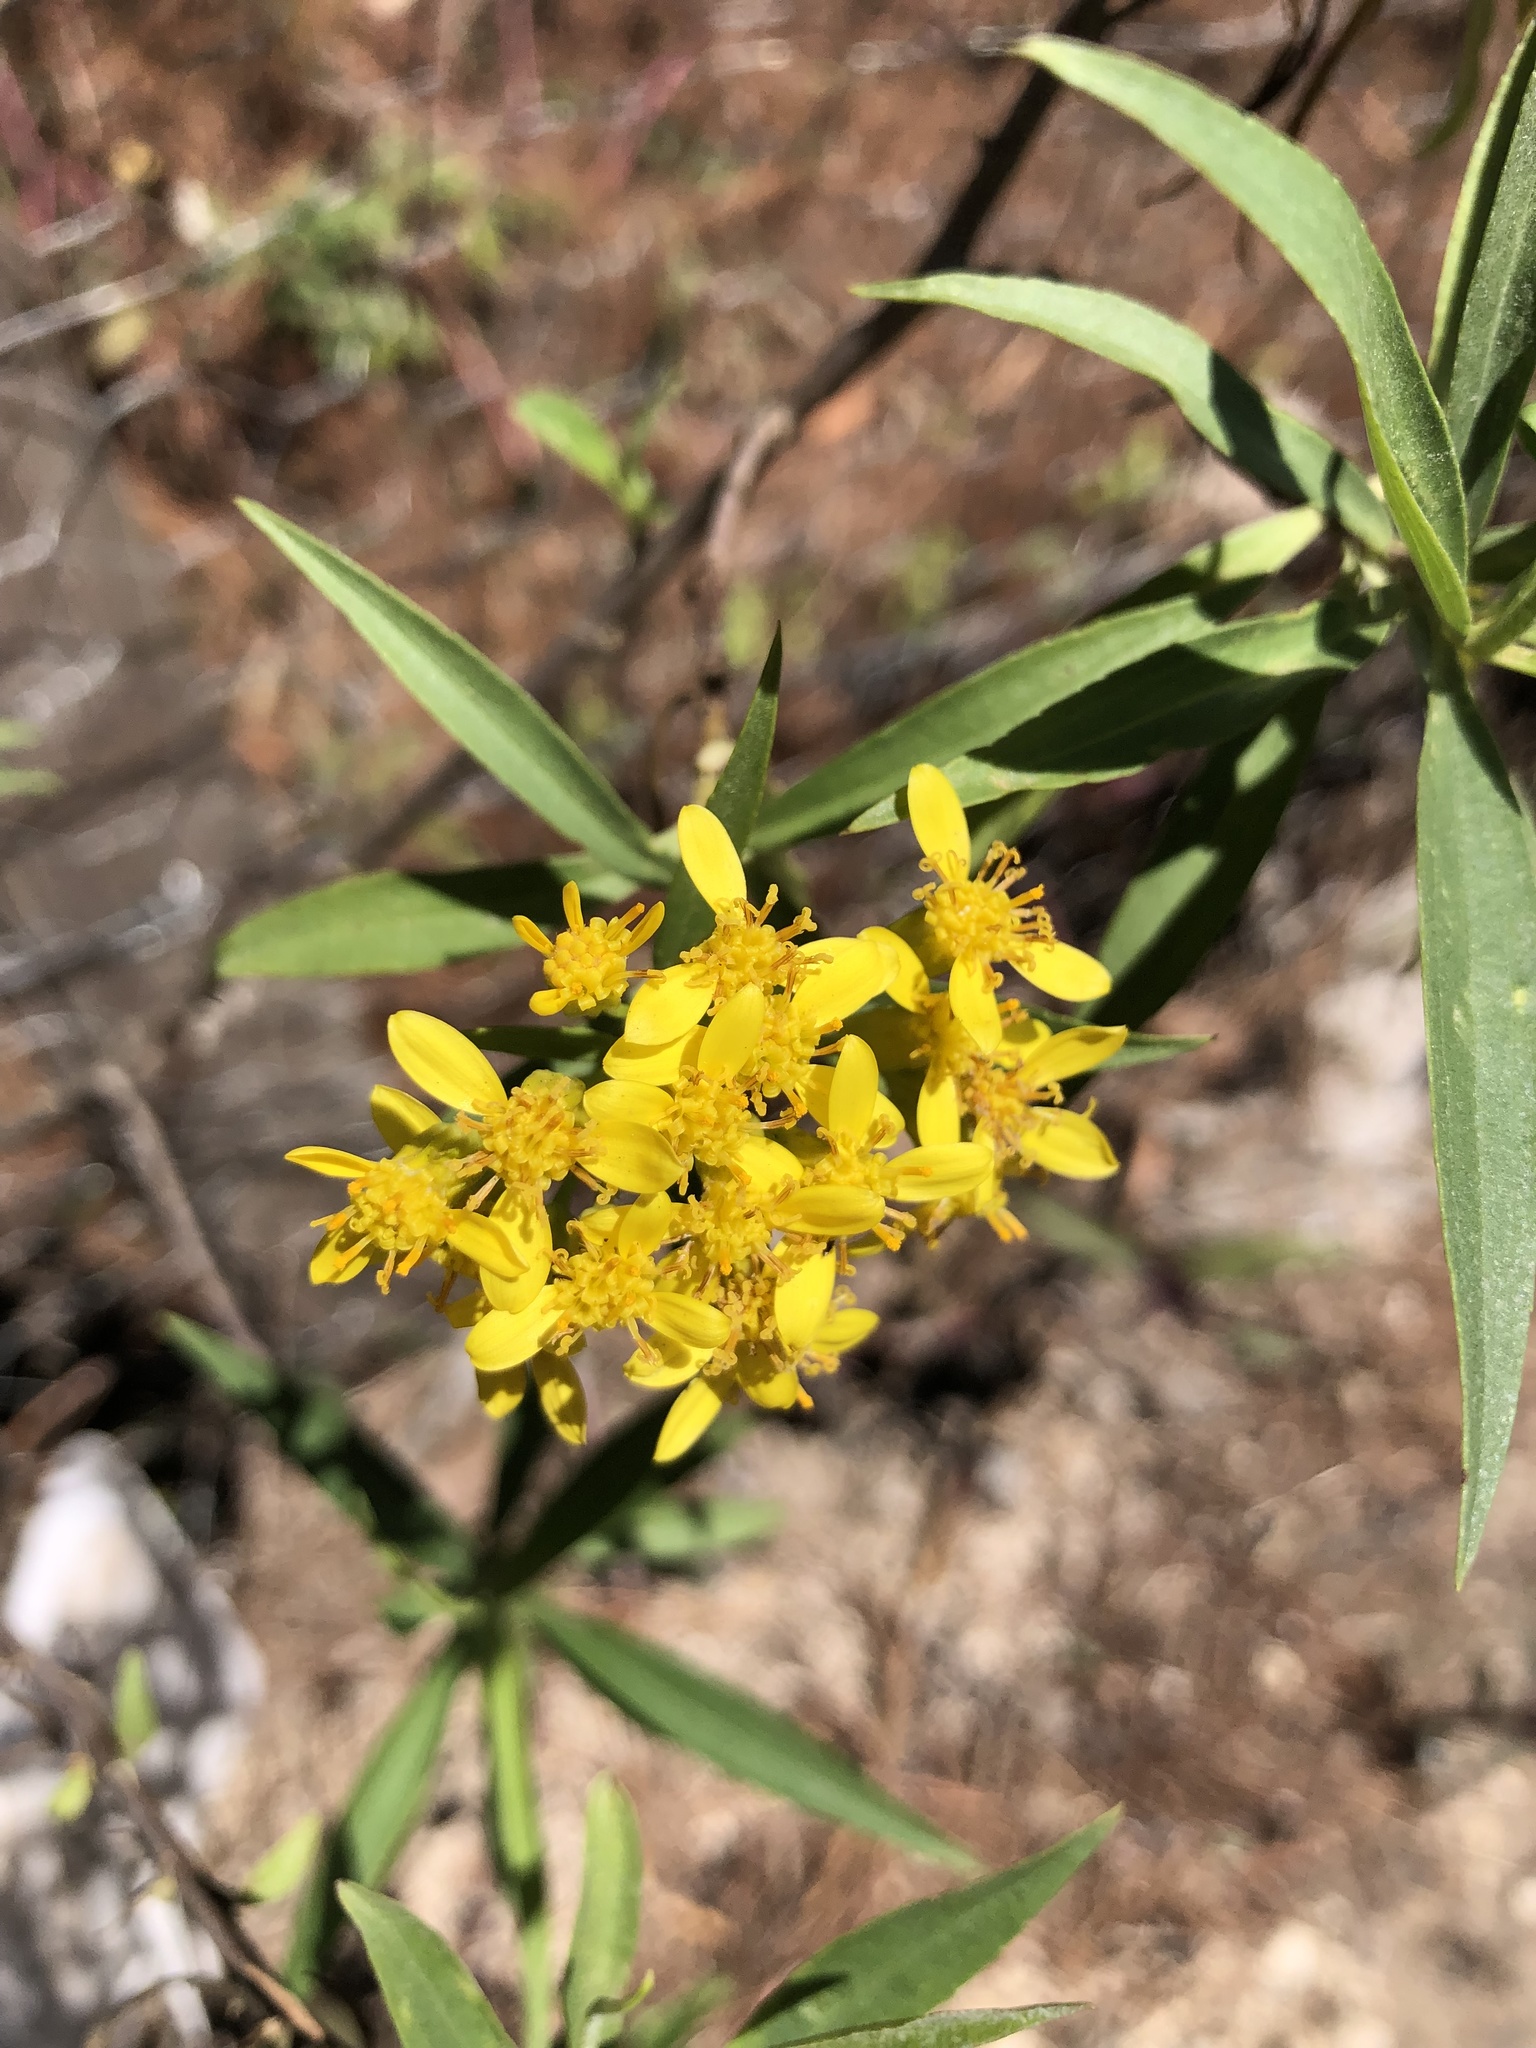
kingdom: Plantae
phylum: Tracheophyta
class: Magnoliopsida
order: Asterales
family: Asteraceae
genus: Barkleyanthus
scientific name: Barkleyanthus salicifolius
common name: Willow ragwort
